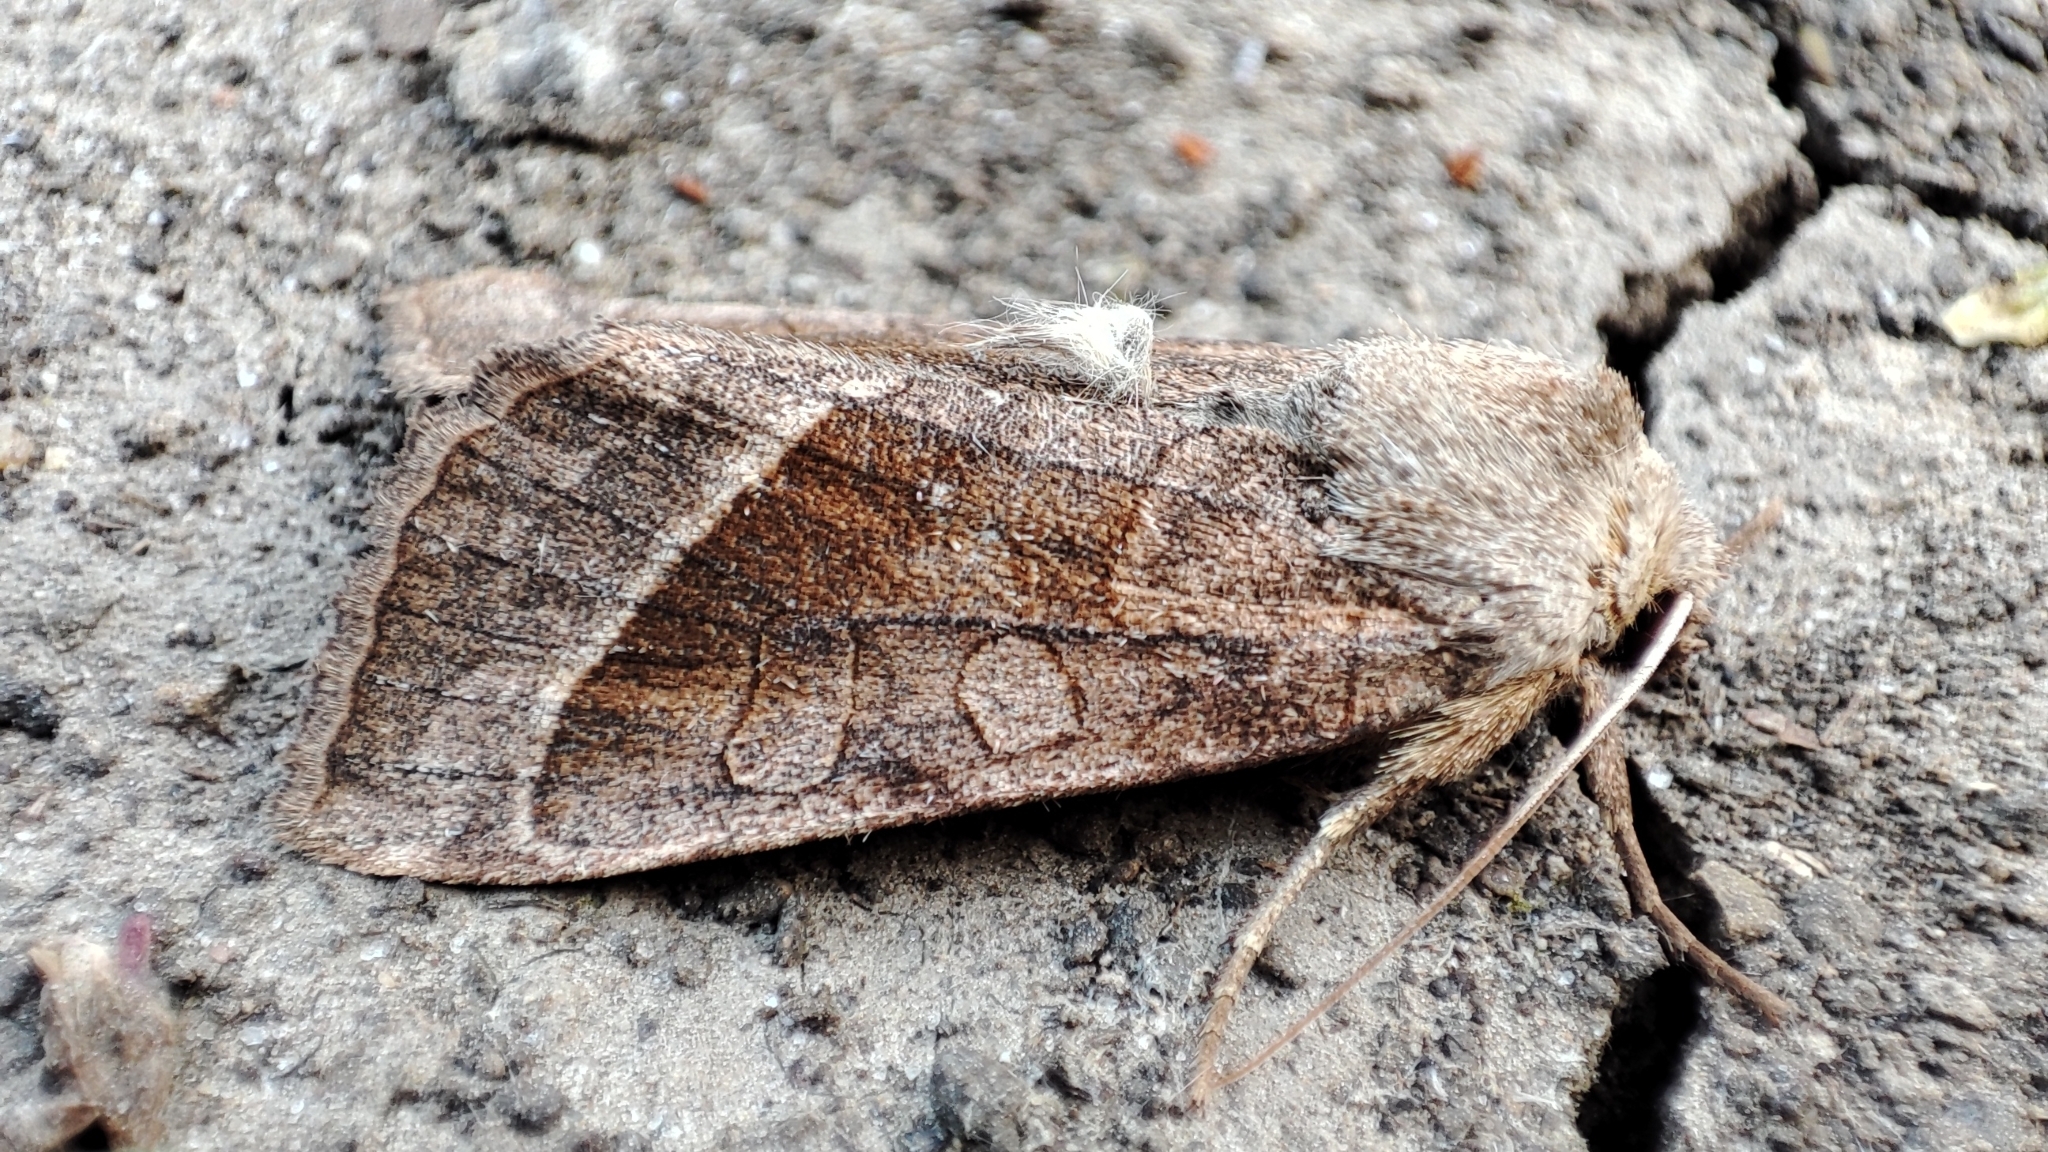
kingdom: Animalia
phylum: Arthropoda
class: Insecta
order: Lepidoptera
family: Noctuidae
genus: Hydraecia
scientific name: Hydraecia micacea
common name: Rosy rustic
